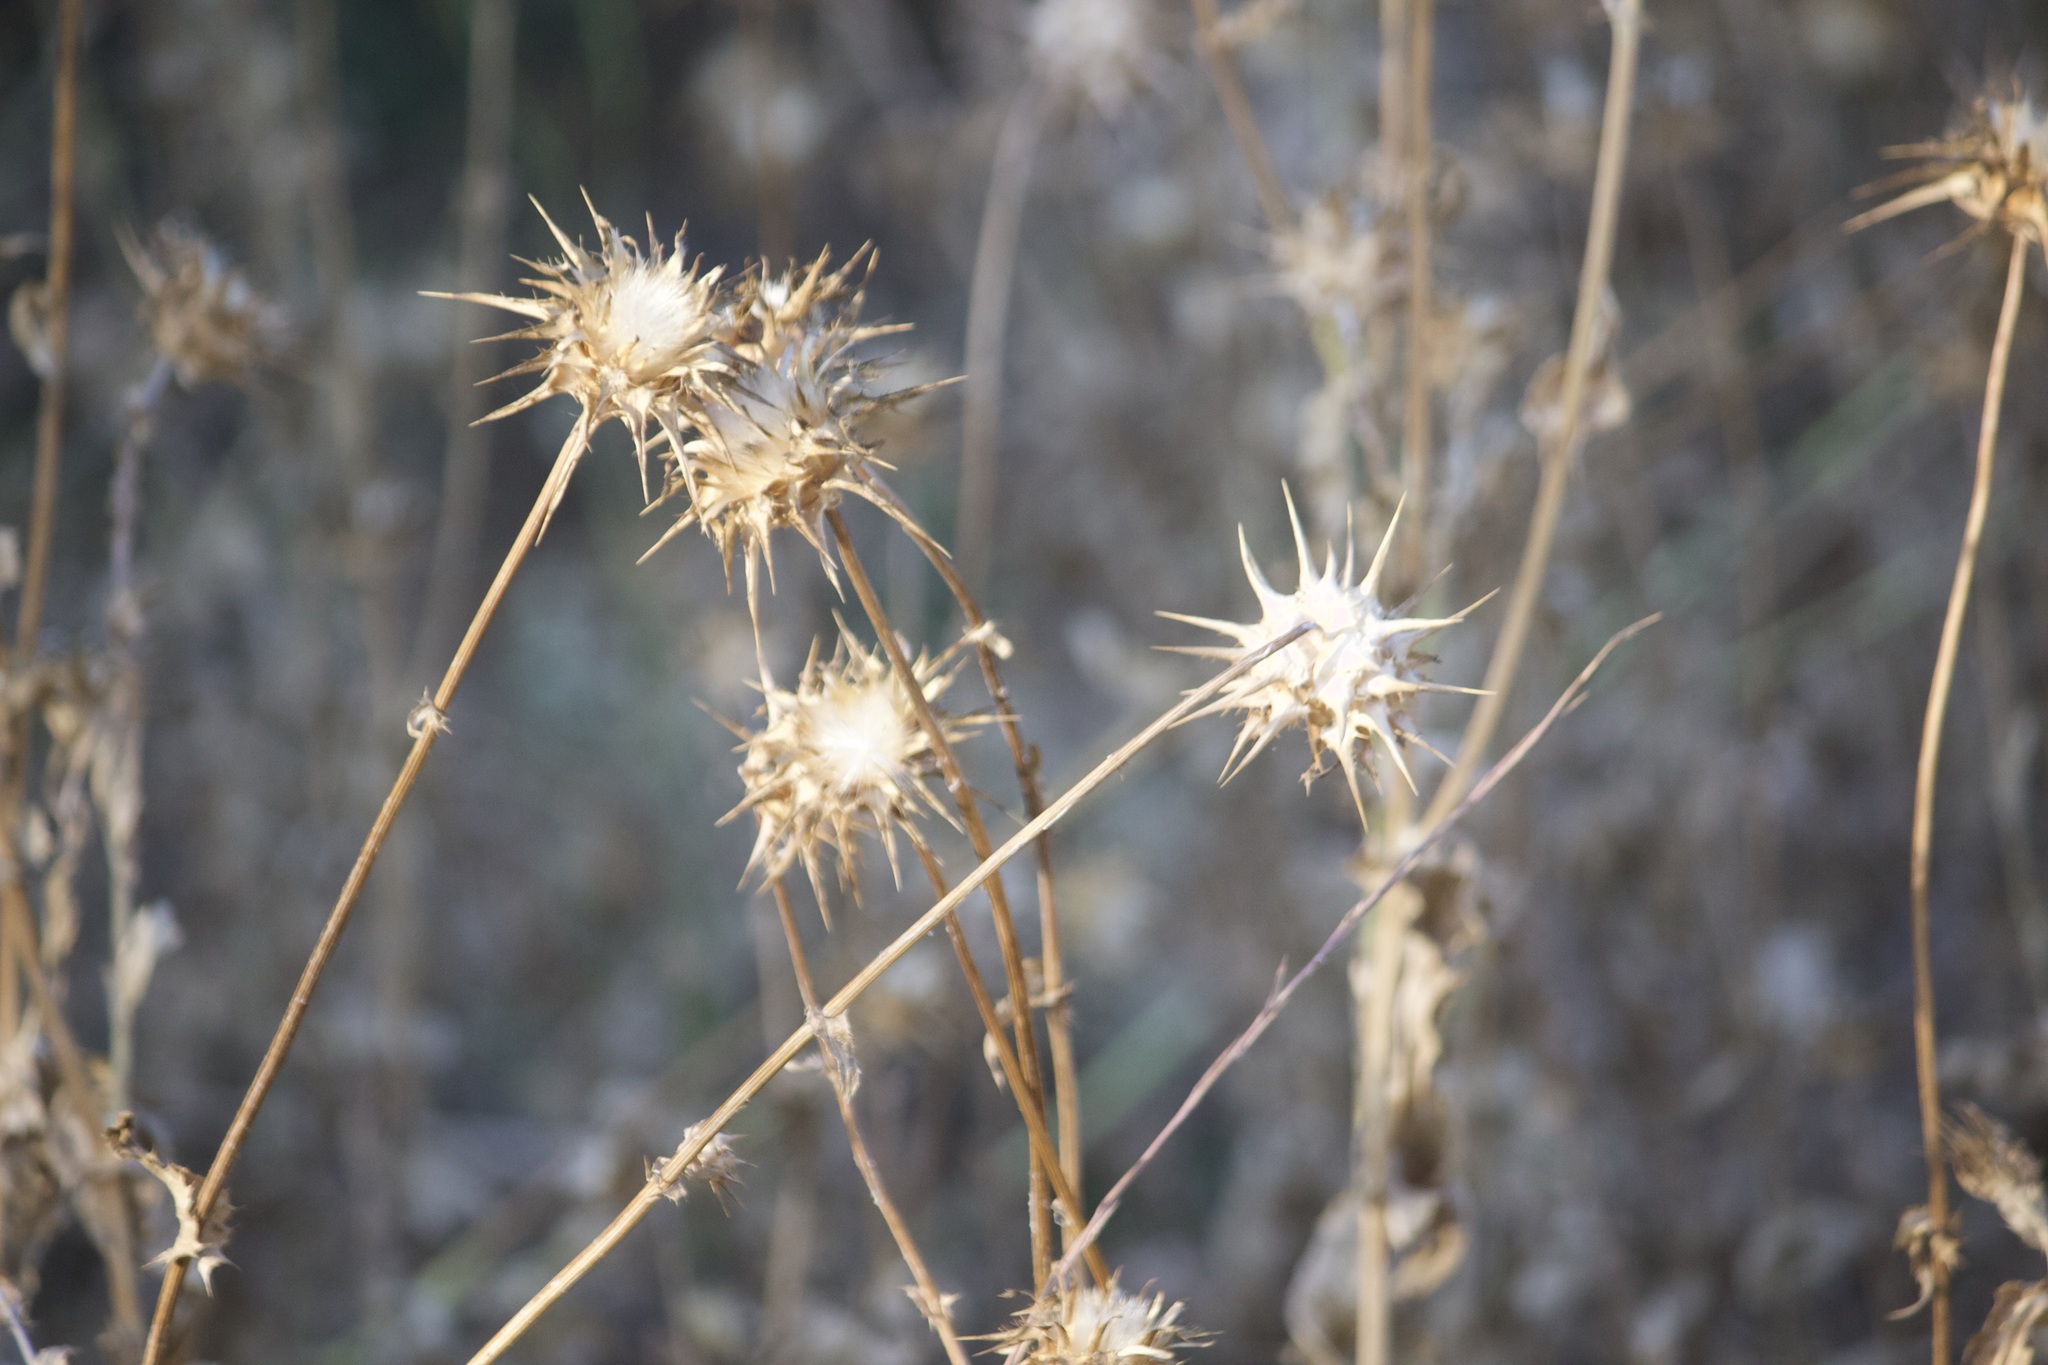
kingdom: Plantae
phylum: Tracheophyta
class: Magnoliopsida
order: Asterales
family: Asteraceae
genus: Centaurea
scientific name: Centaurea melitensis
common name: Maltese star-thistle
